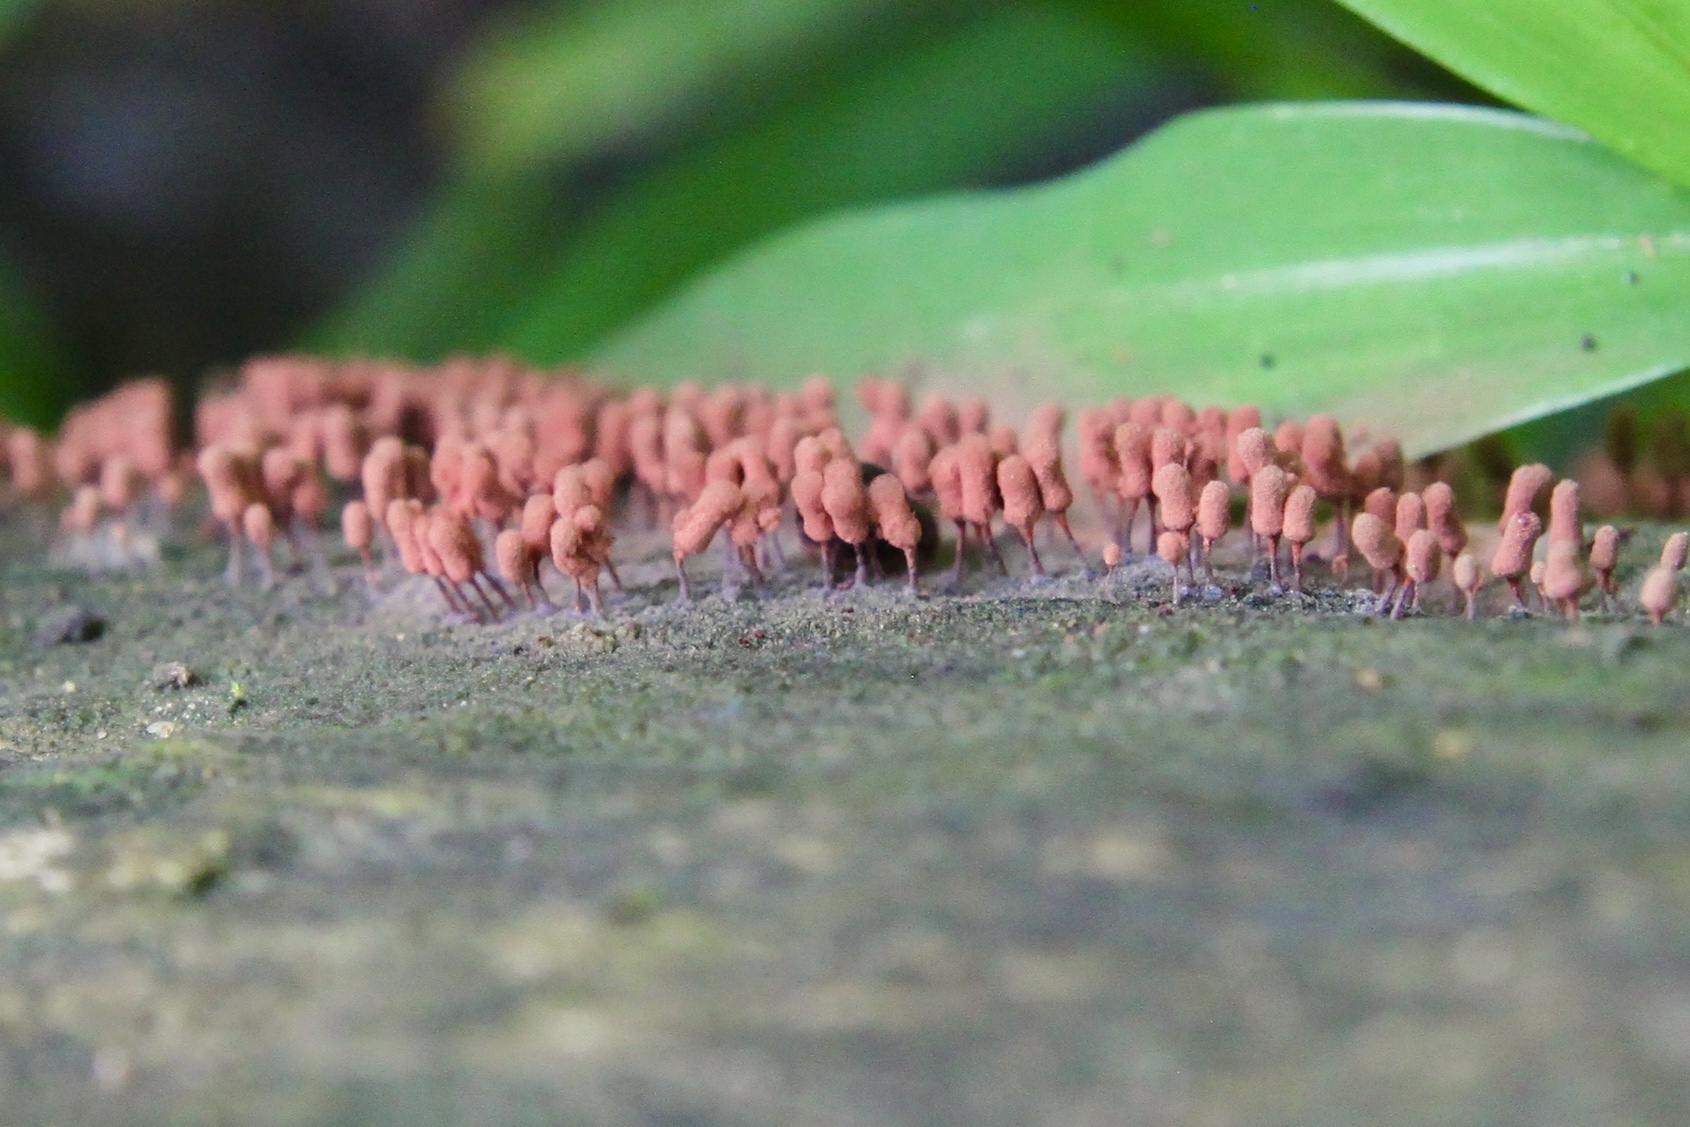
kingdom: Protozoa
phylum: Mycetozoa
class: Myxomycetes
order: Trichiales
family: Arcyriaceae
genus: Arcyria
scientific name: Arcyria denudata
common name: Carnival candy slime mold
